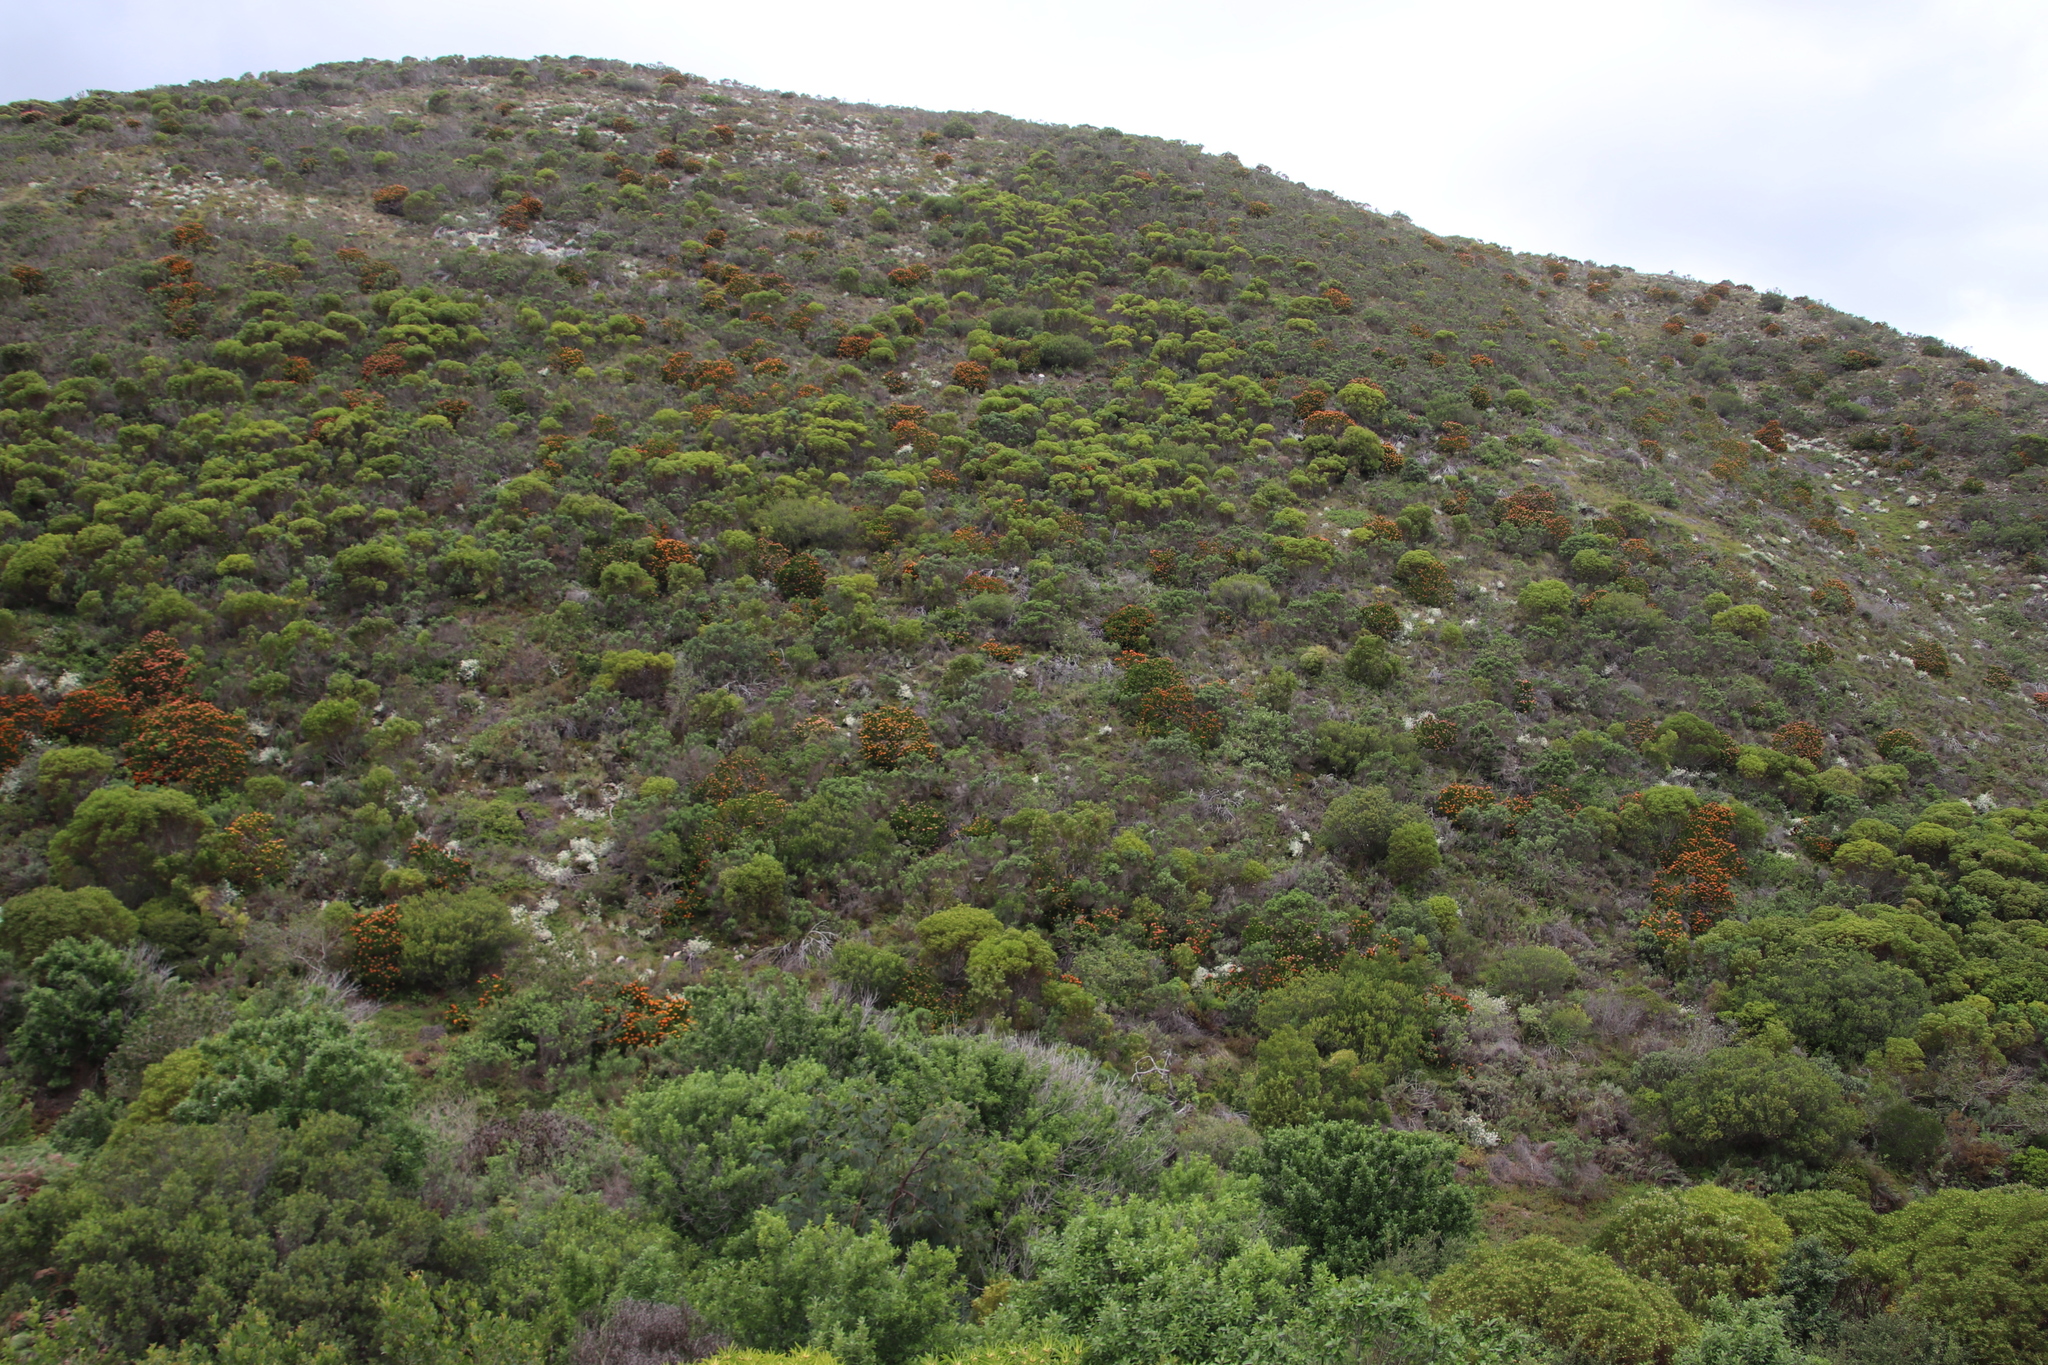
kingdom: Plantae
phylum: Tracheophyta
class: Magnoliopsida
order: Proteales
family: Proteaceae
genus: Leucadendron
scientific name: Leucadendron coniferum
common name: Dune conebush
